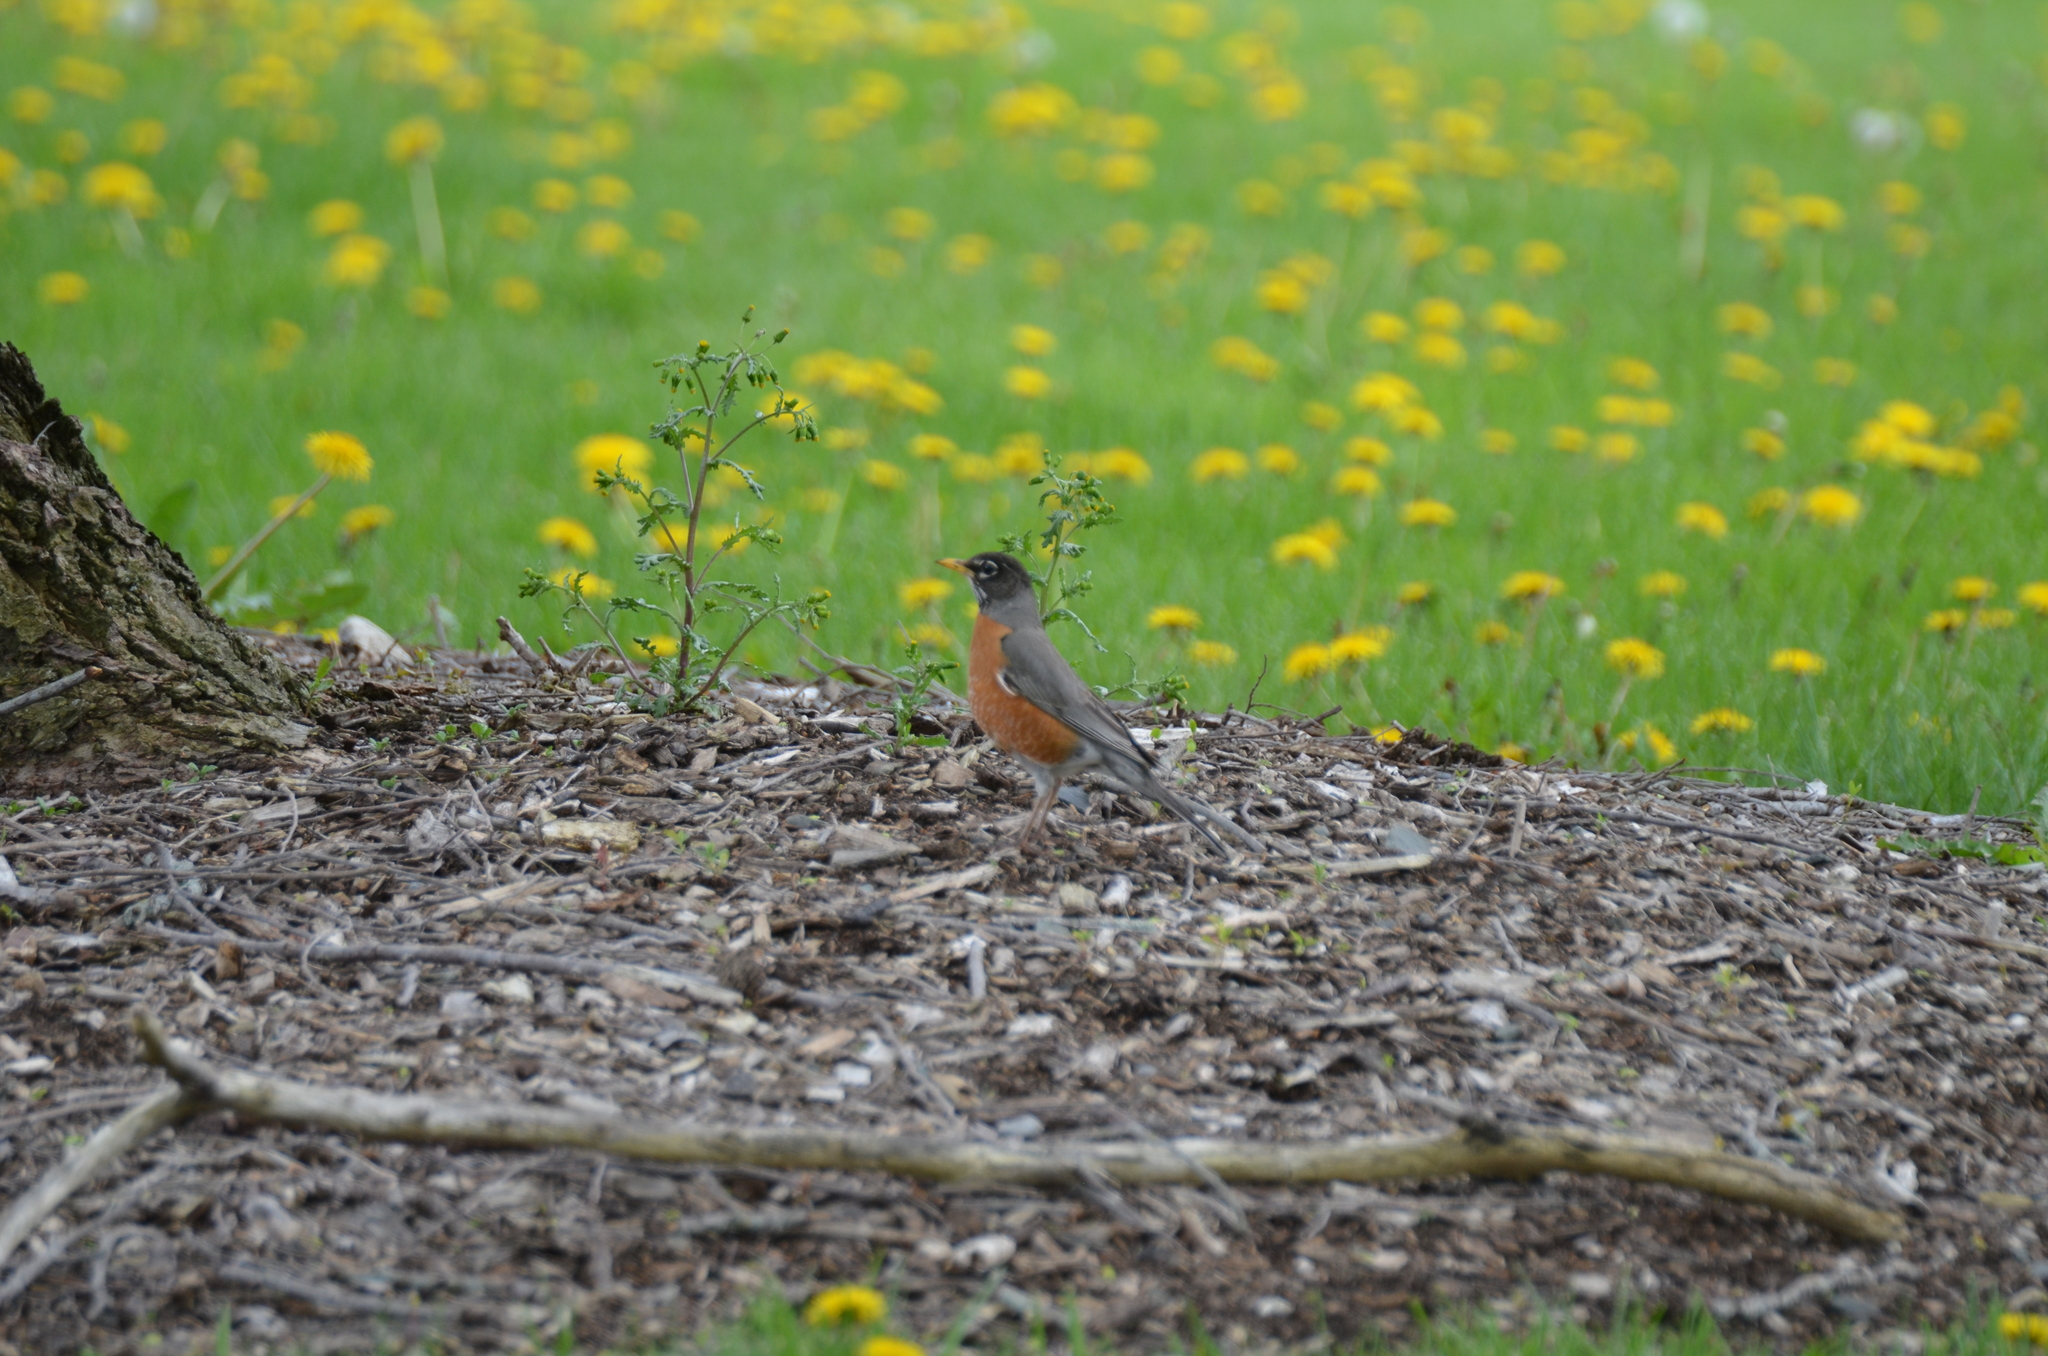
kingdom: Animalia
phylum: Chordata
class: Aves
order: Passeriformes
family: Turdidae
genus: Turdus
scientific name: Turdus migratorius
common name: American robin
